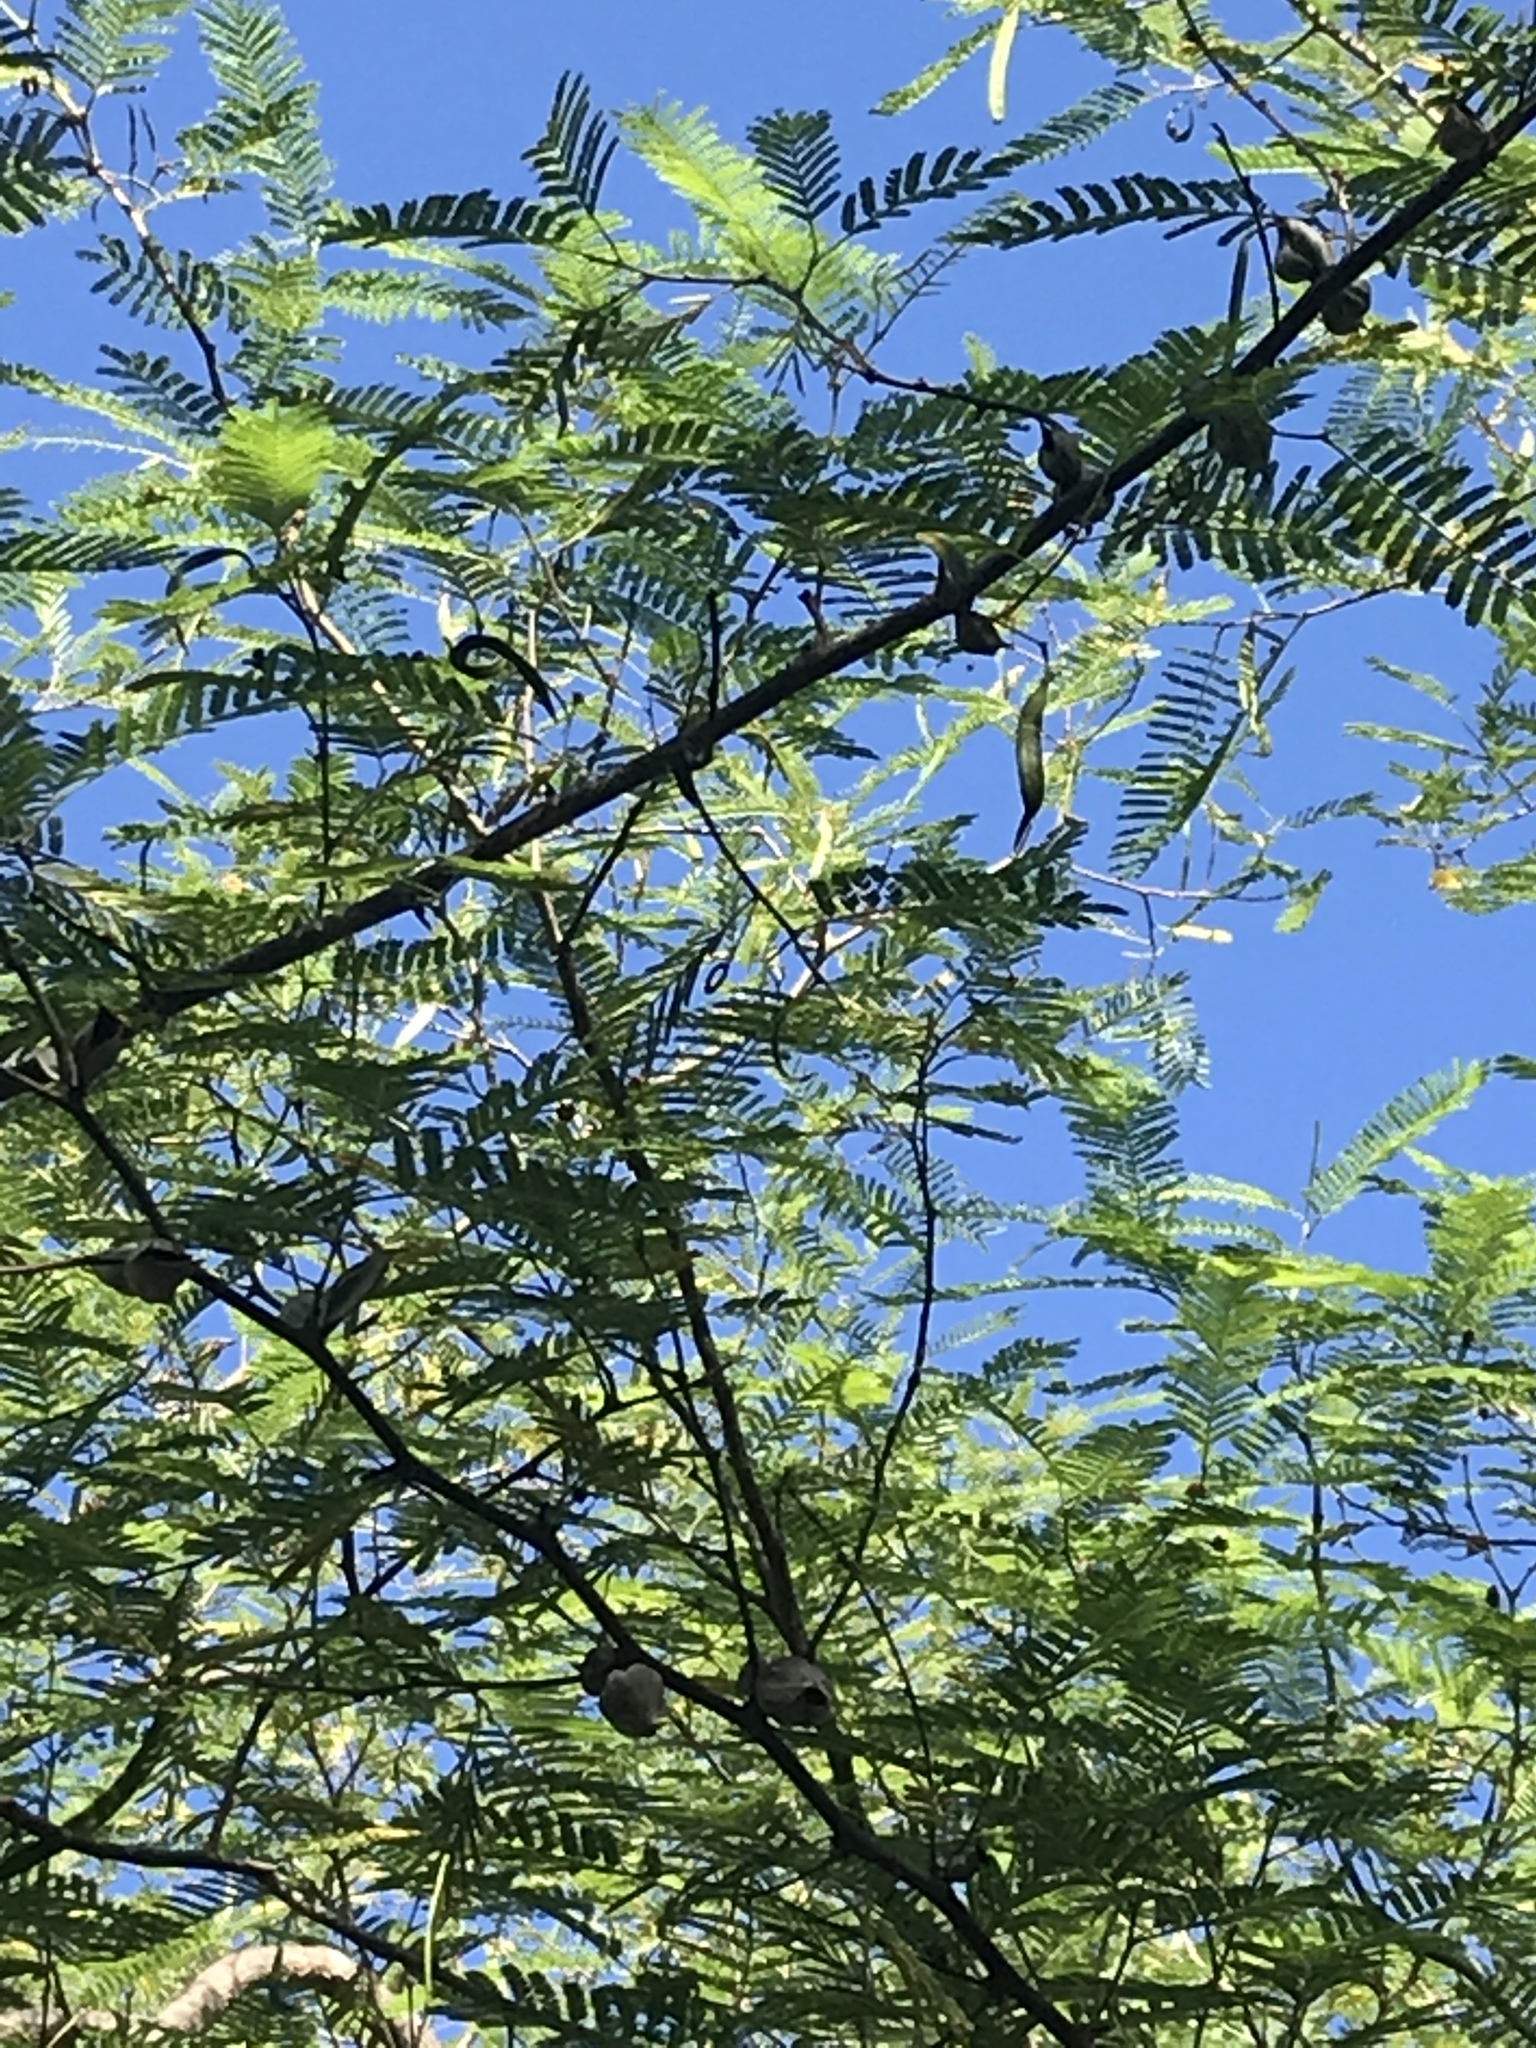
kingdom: Plantae
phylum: Tracheophyta
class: Magnoliopsida
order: Fabales
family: Fabaceae
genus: Vachellia
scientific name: Vachellia campechiana
